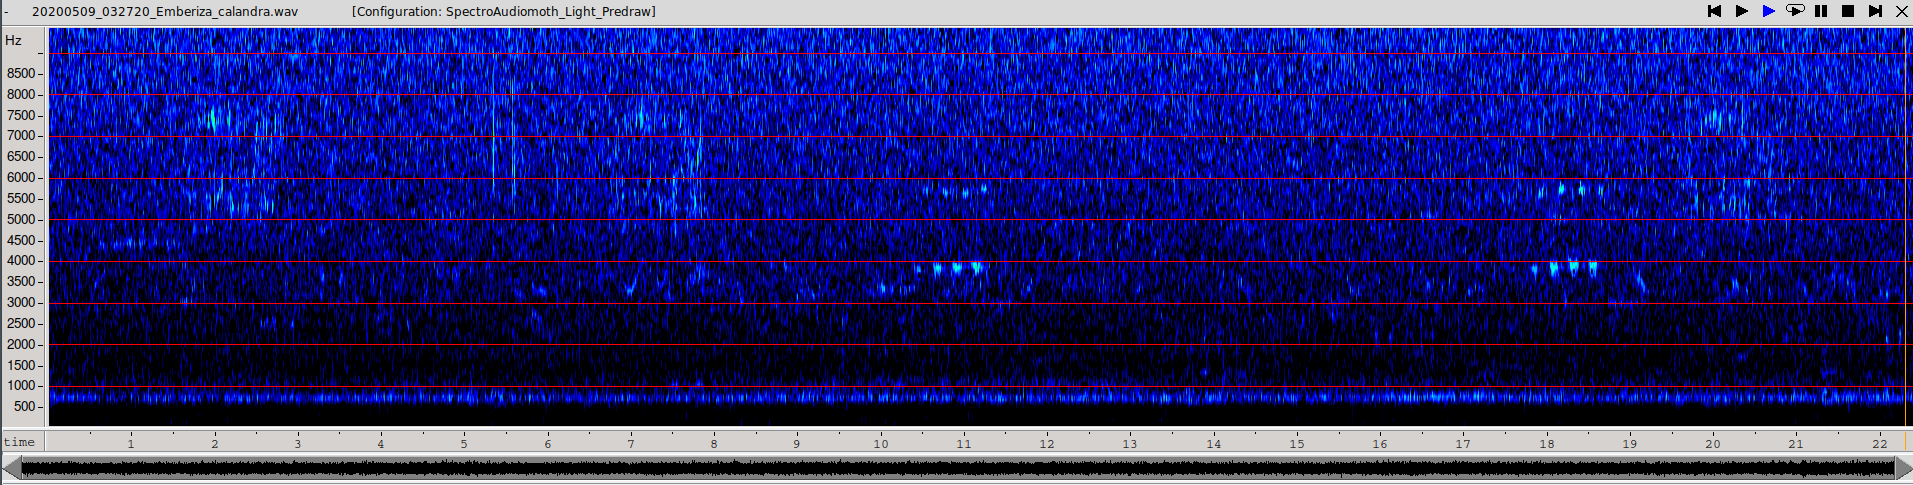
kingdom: Animalia
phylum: Chordata
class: Aves
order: Passeriformes
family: Emberizidae
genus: Emberiza
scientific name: Emberiza calandra
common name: Corn bunting
